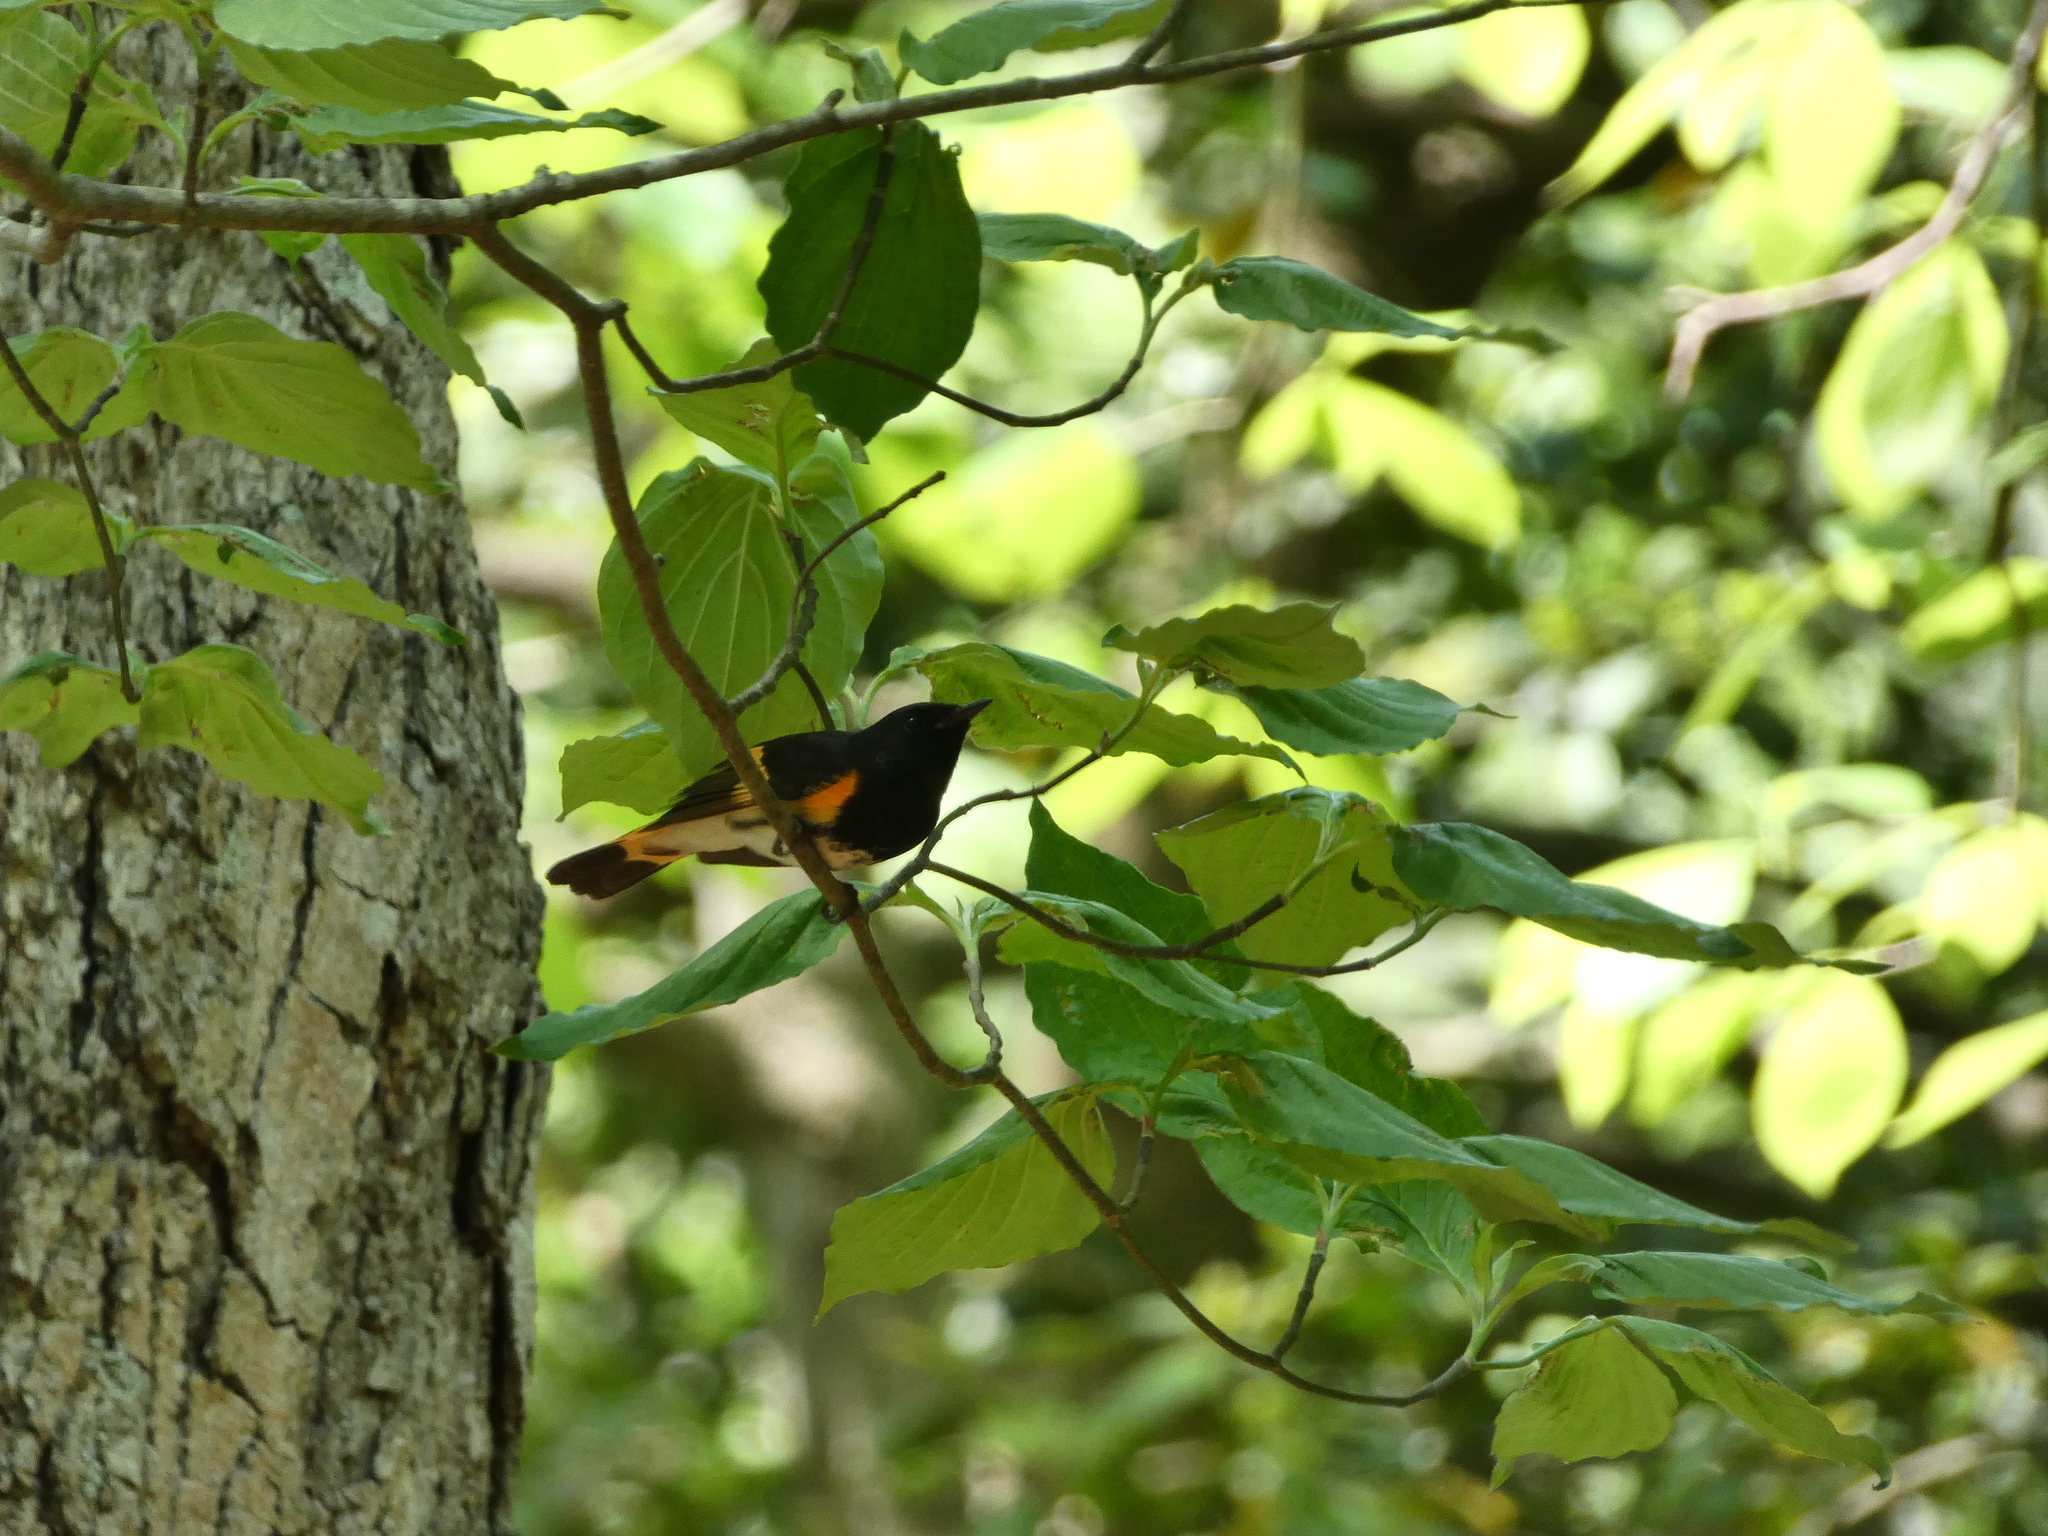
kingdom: Animalia
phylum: Chordata
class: Aves
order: Passeriformes
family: Parulidae
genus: Setophaga
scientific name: Setophaga ruticilla
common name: American redstart
